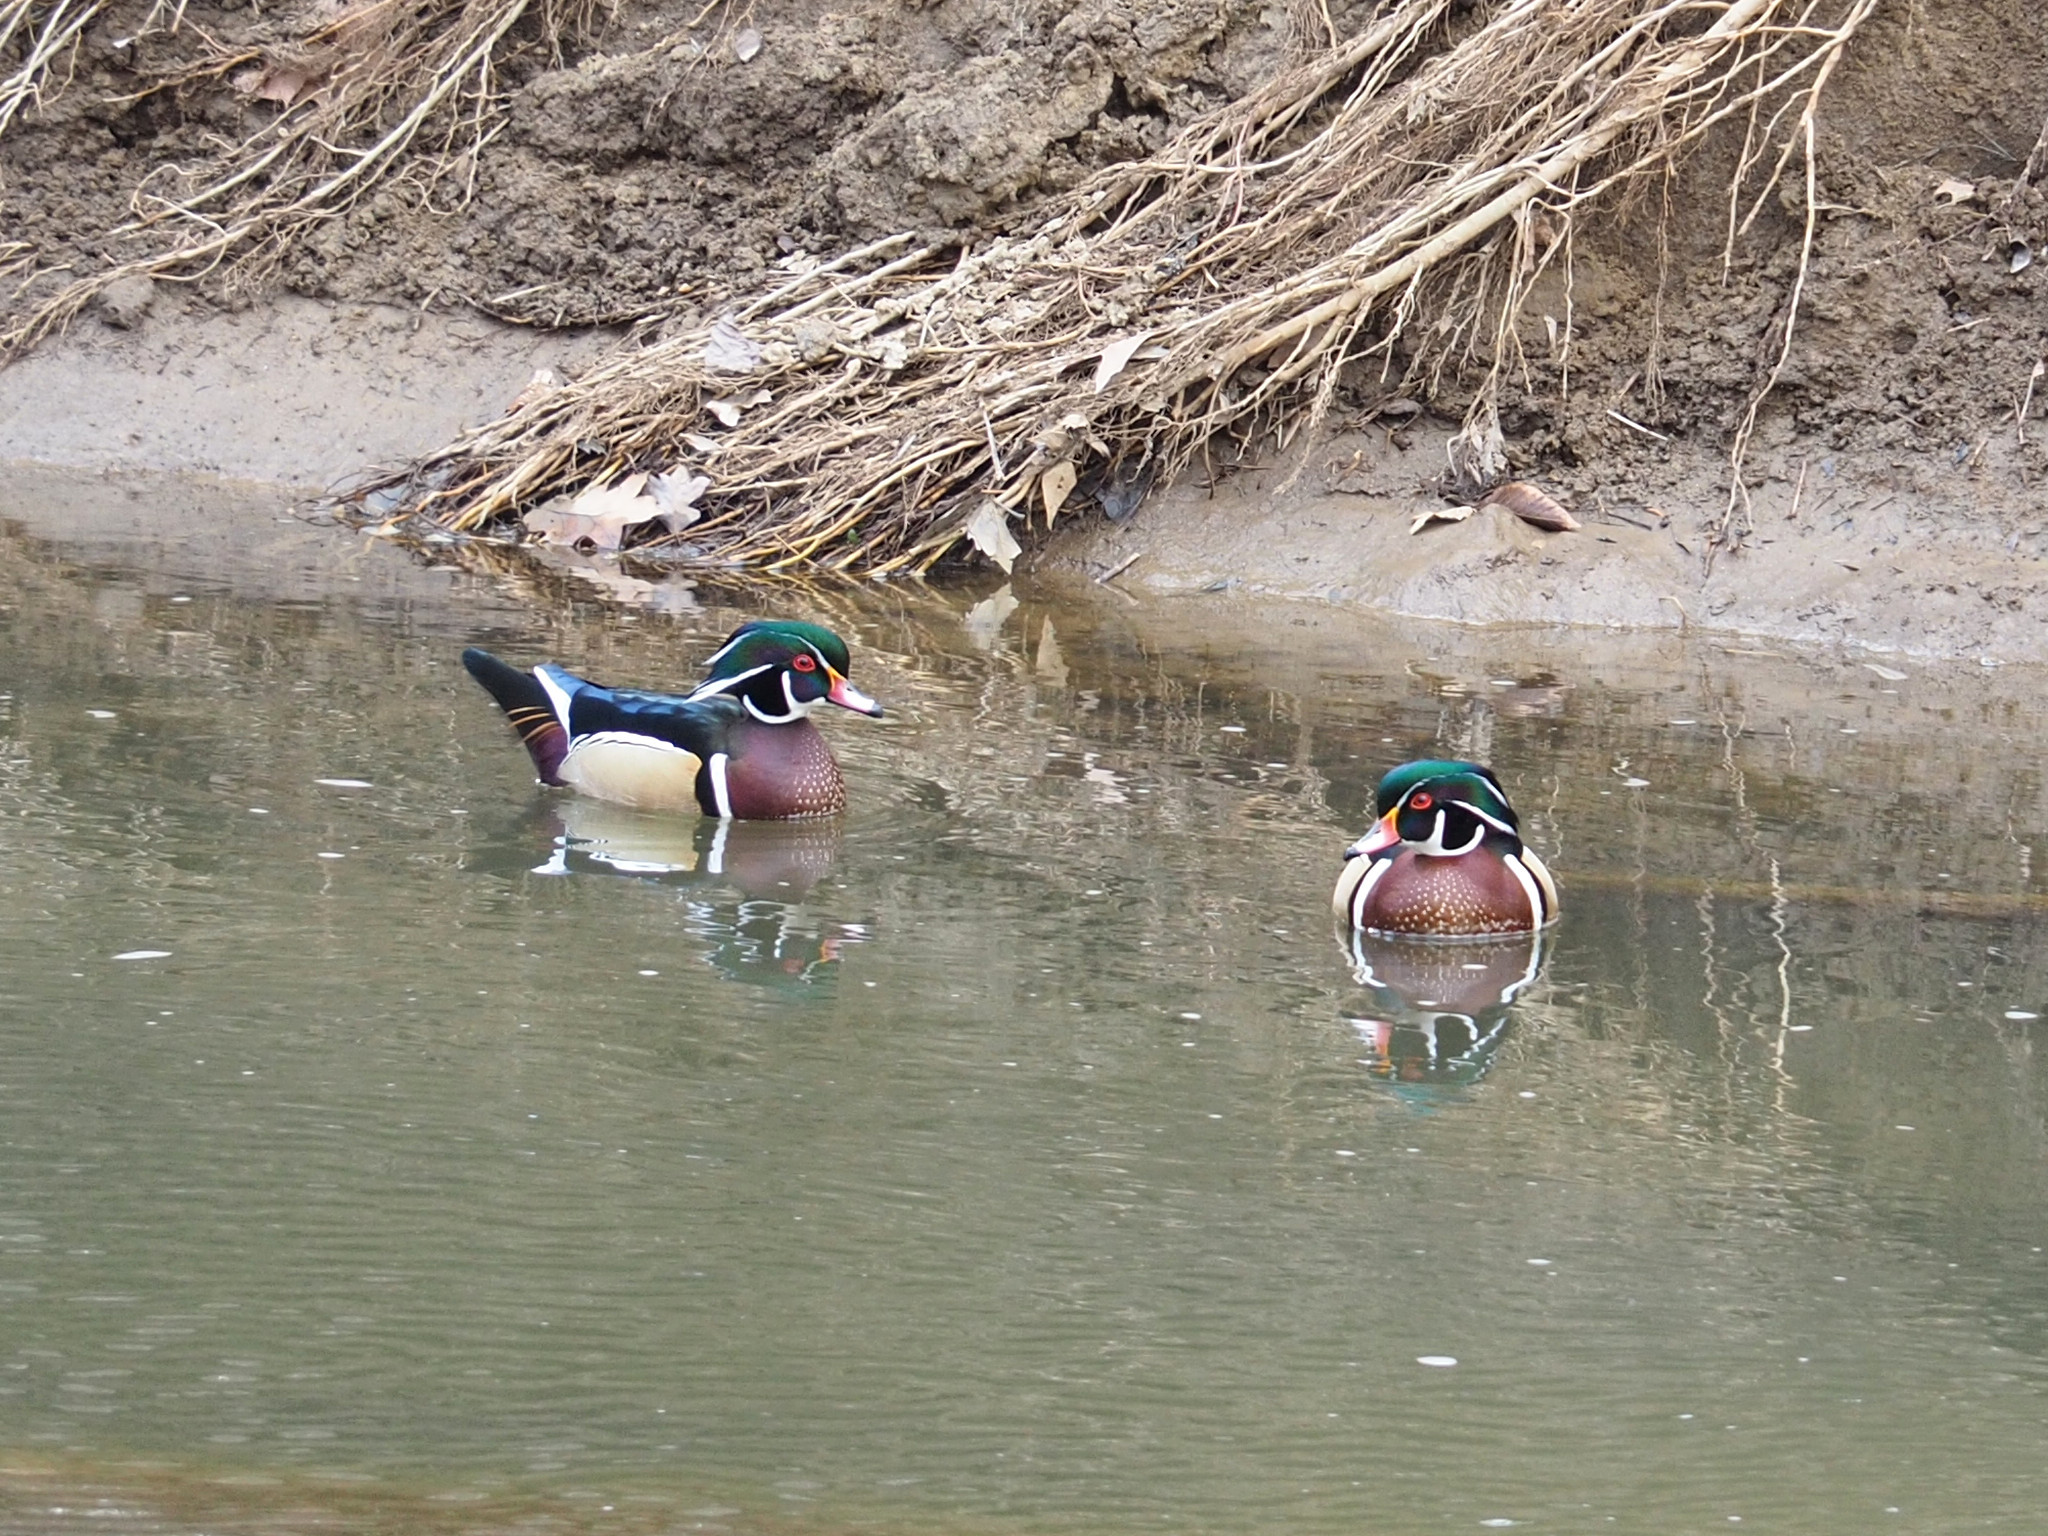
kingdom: Animalia
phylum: Chordata
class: Aves
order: Anseriformes
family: Anatidae
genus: Aix
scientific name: Aix sponsa
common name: Wood duck
